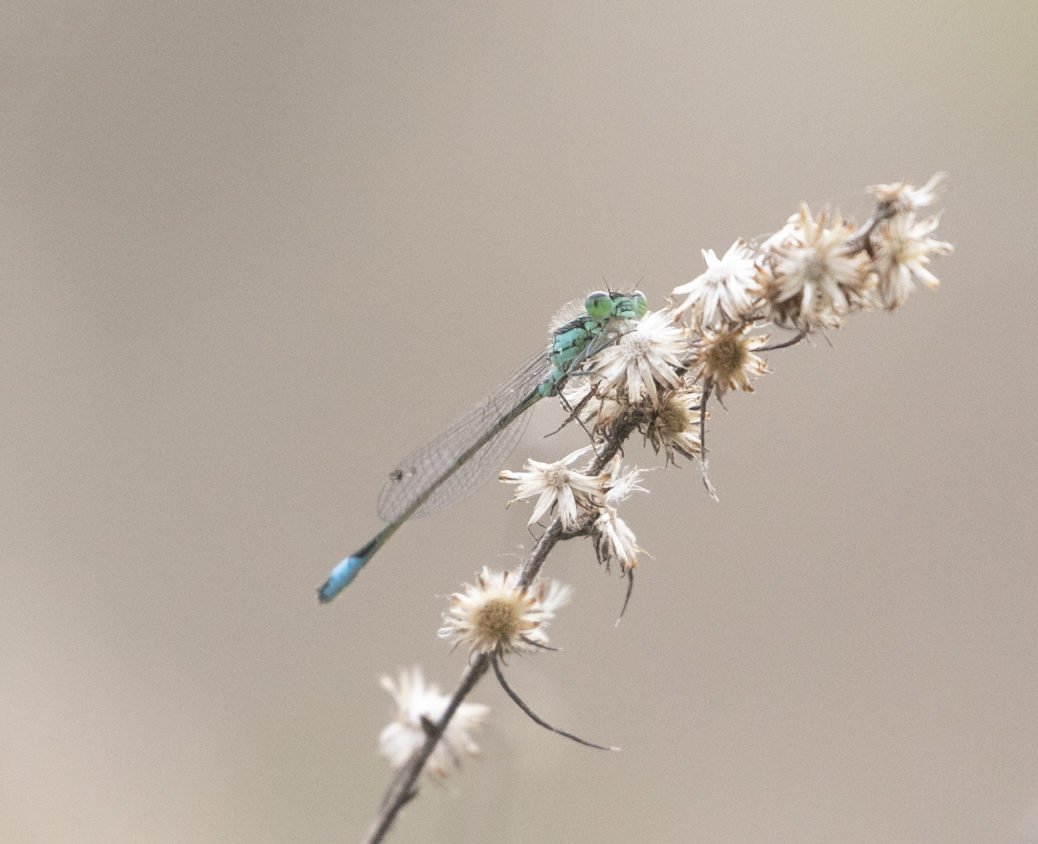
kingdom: Animalia
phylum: Arthropoda
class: Insecta
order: Odonata
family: Coenagrionidae
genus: Ischnura
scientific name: Ischnura elegans
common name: Blue-tailed damselfly
